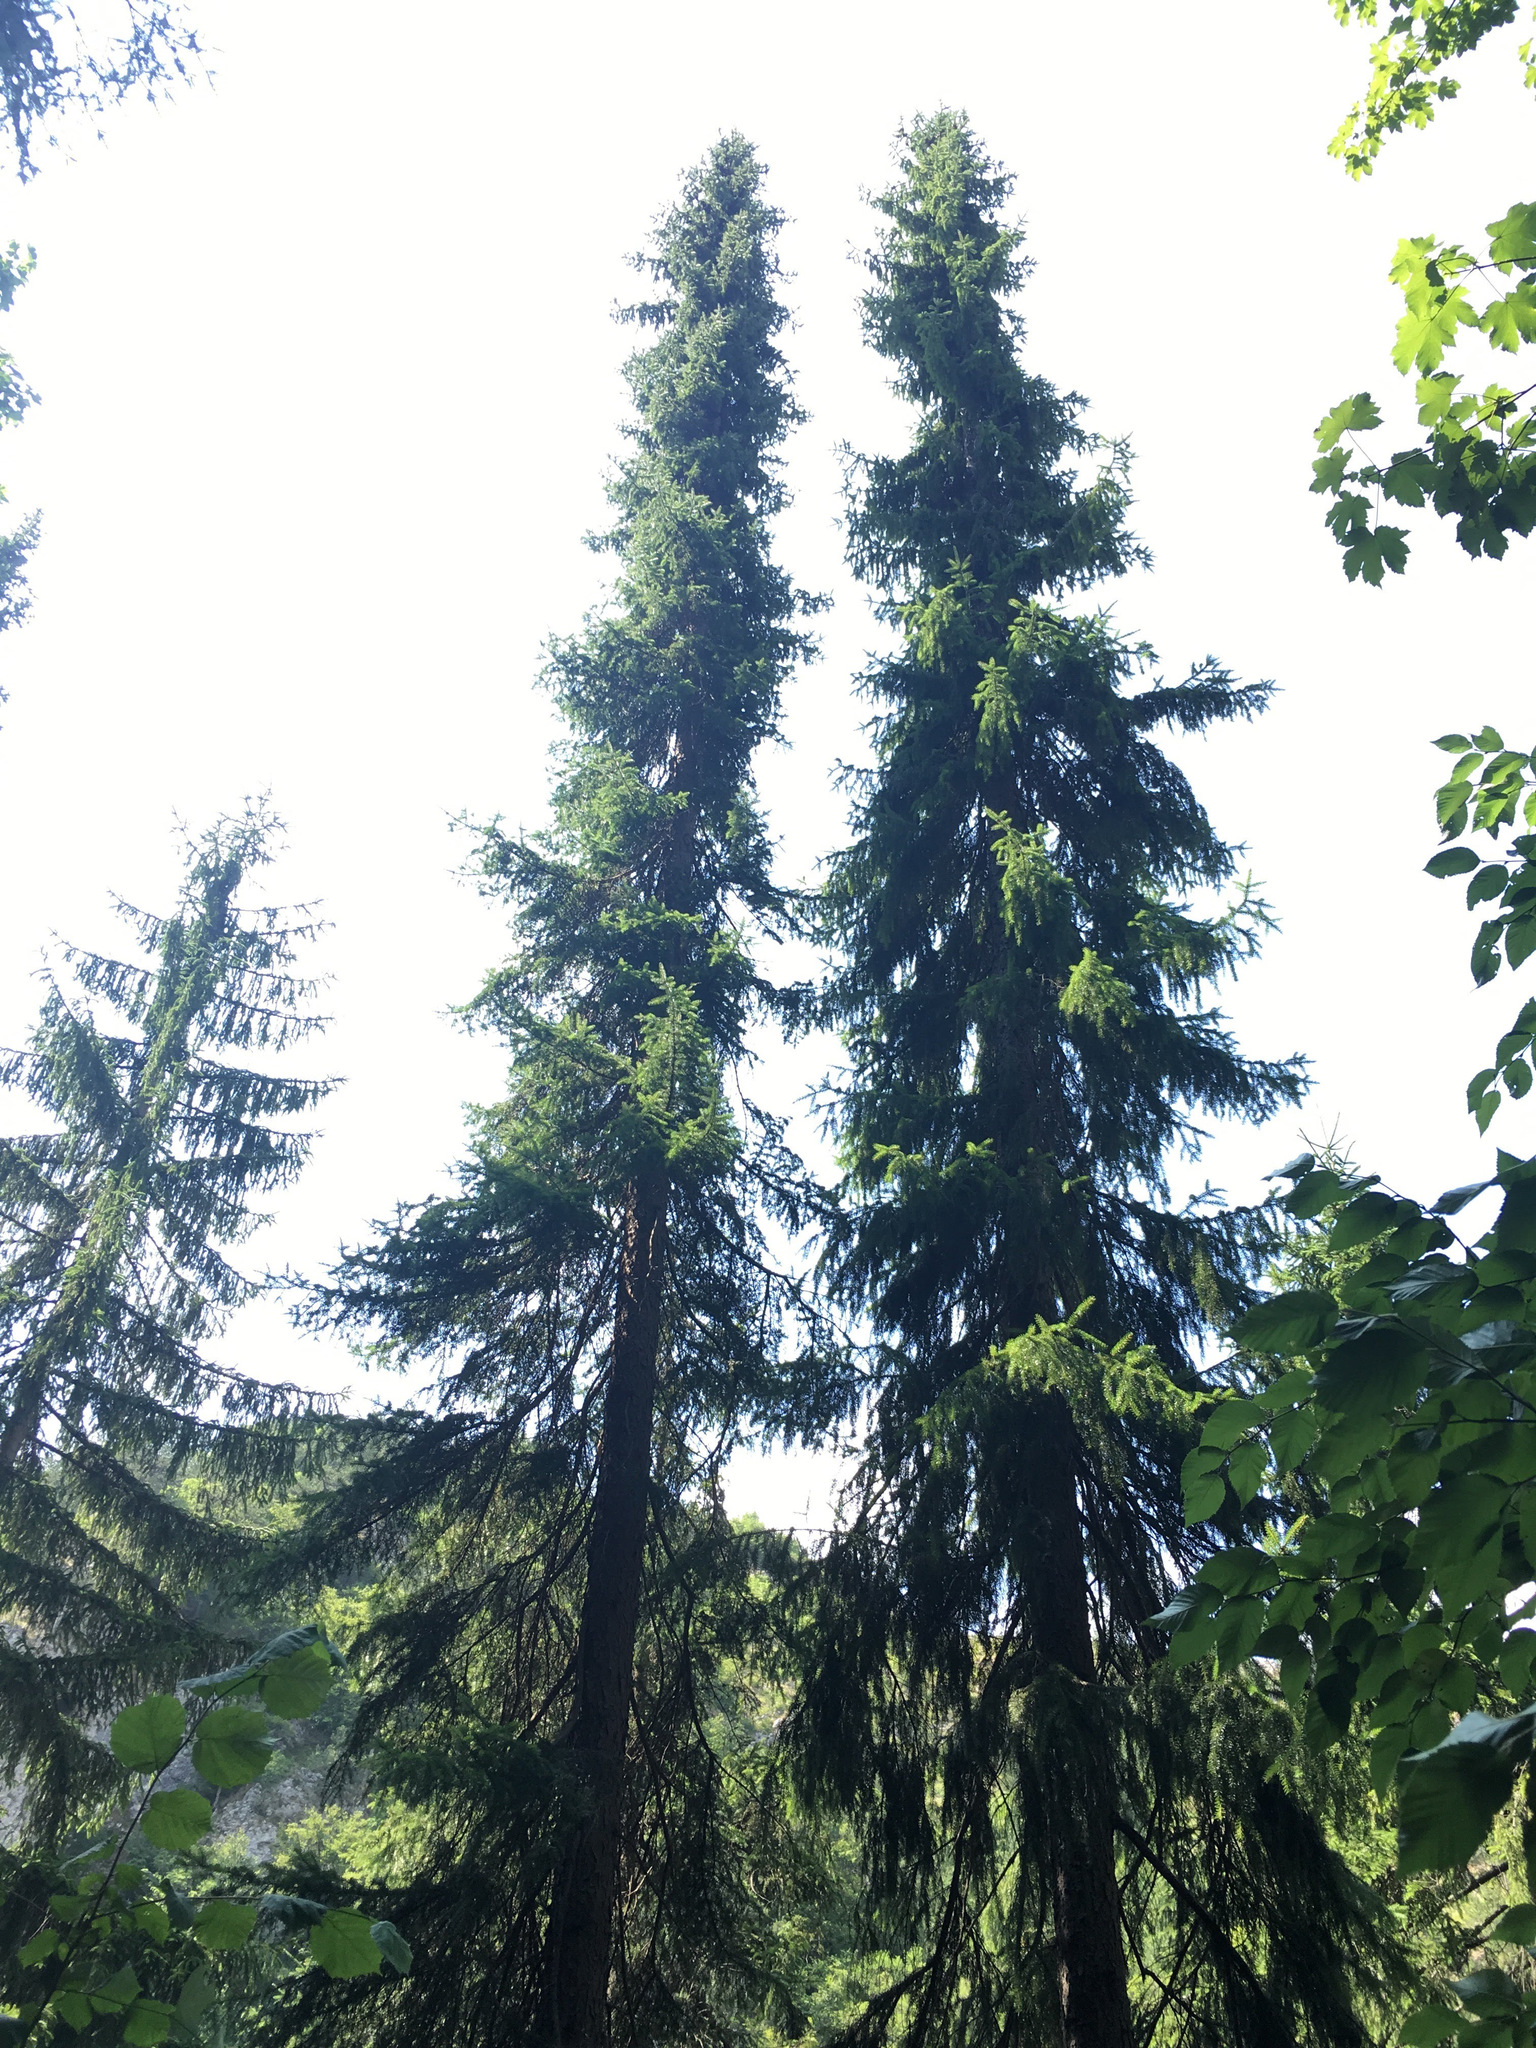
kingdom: Plantae
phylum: Tracheophyta
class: Pinopsida
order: Pinales
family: Pinaceae
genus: Picea
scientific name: Picea omorika
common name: Serbian spruce
